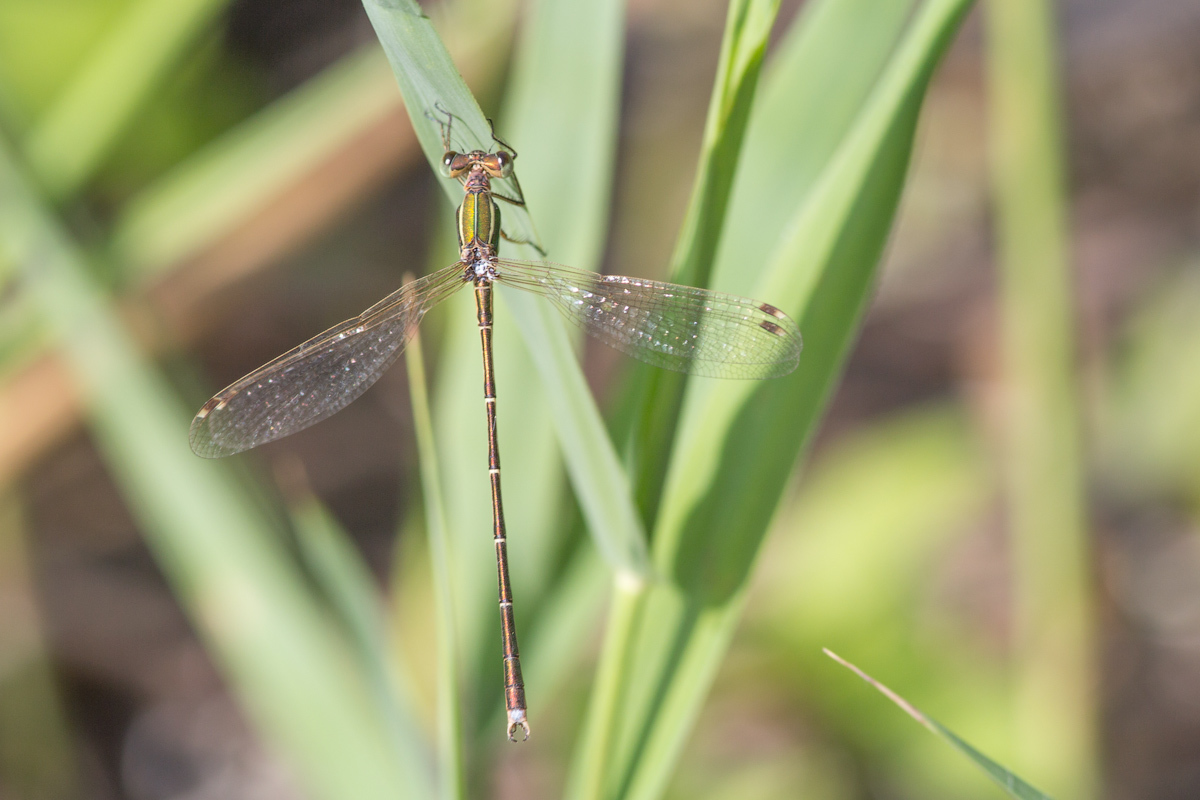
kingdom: Animalia
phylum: Arthropoda
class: Insecta
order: Odonata
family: Lestidae
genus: Lestes
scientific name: Lestes barbarus
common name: Migrant spreadwing
